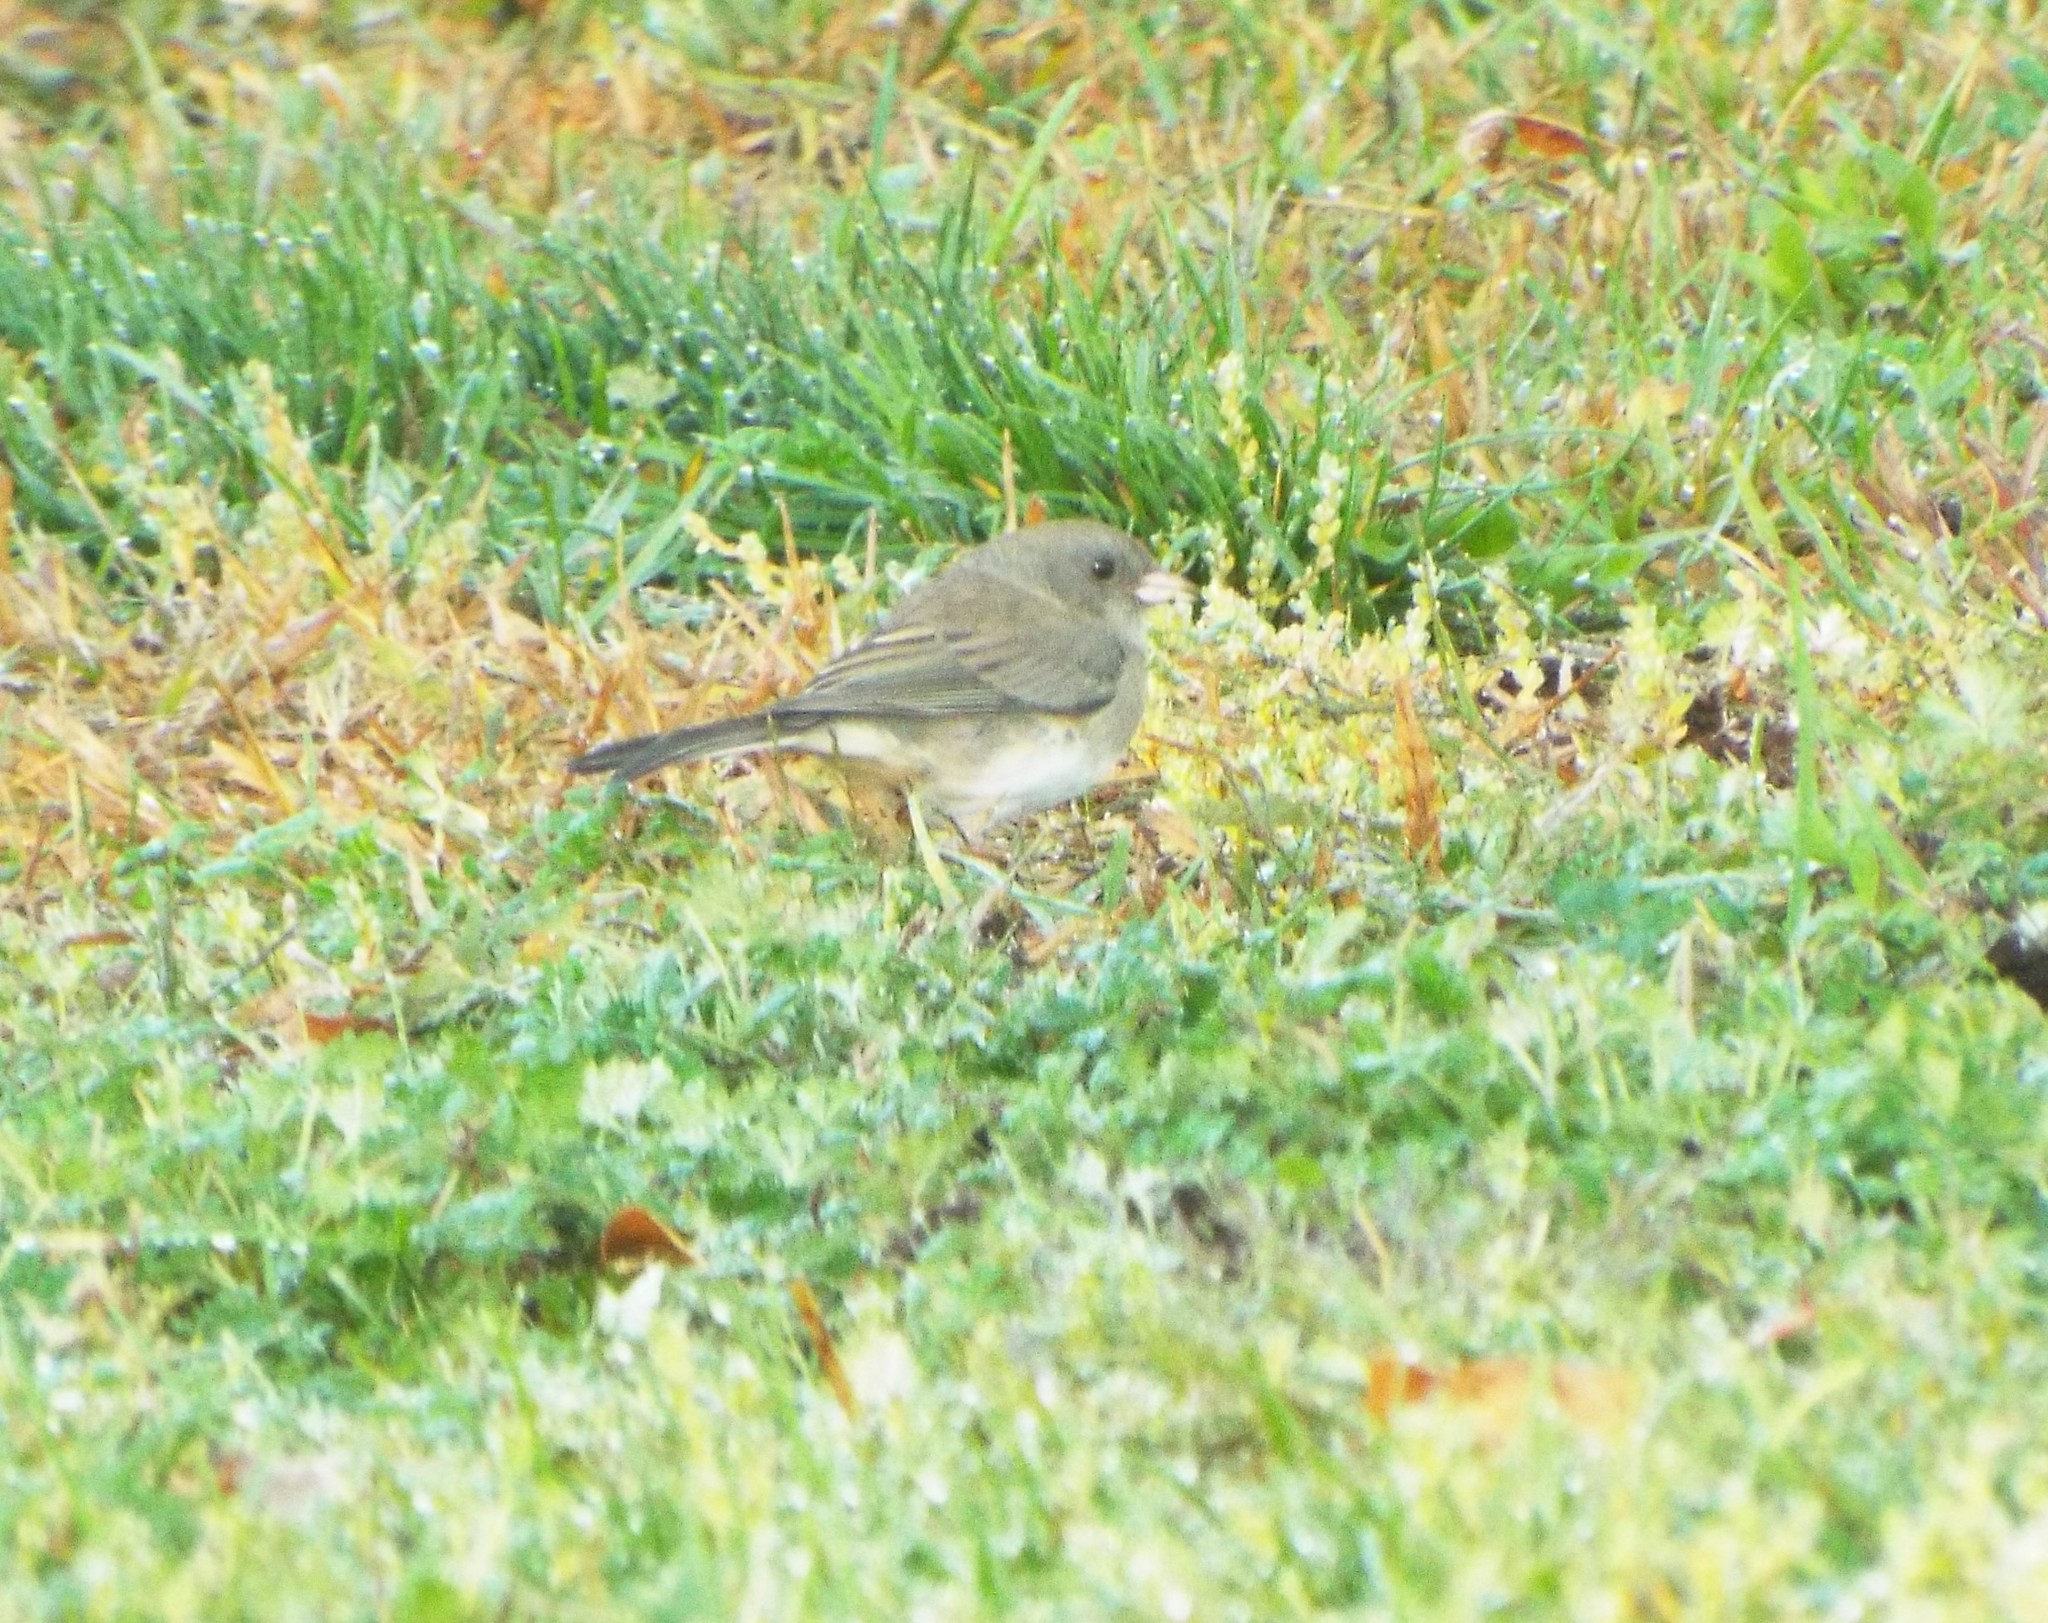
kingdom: Animalia
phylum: Chordata
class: Aves
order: Passeriformes
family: Passerellidae
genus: Junco
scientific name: Junco hyemalis
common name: Dark-eyed junco
